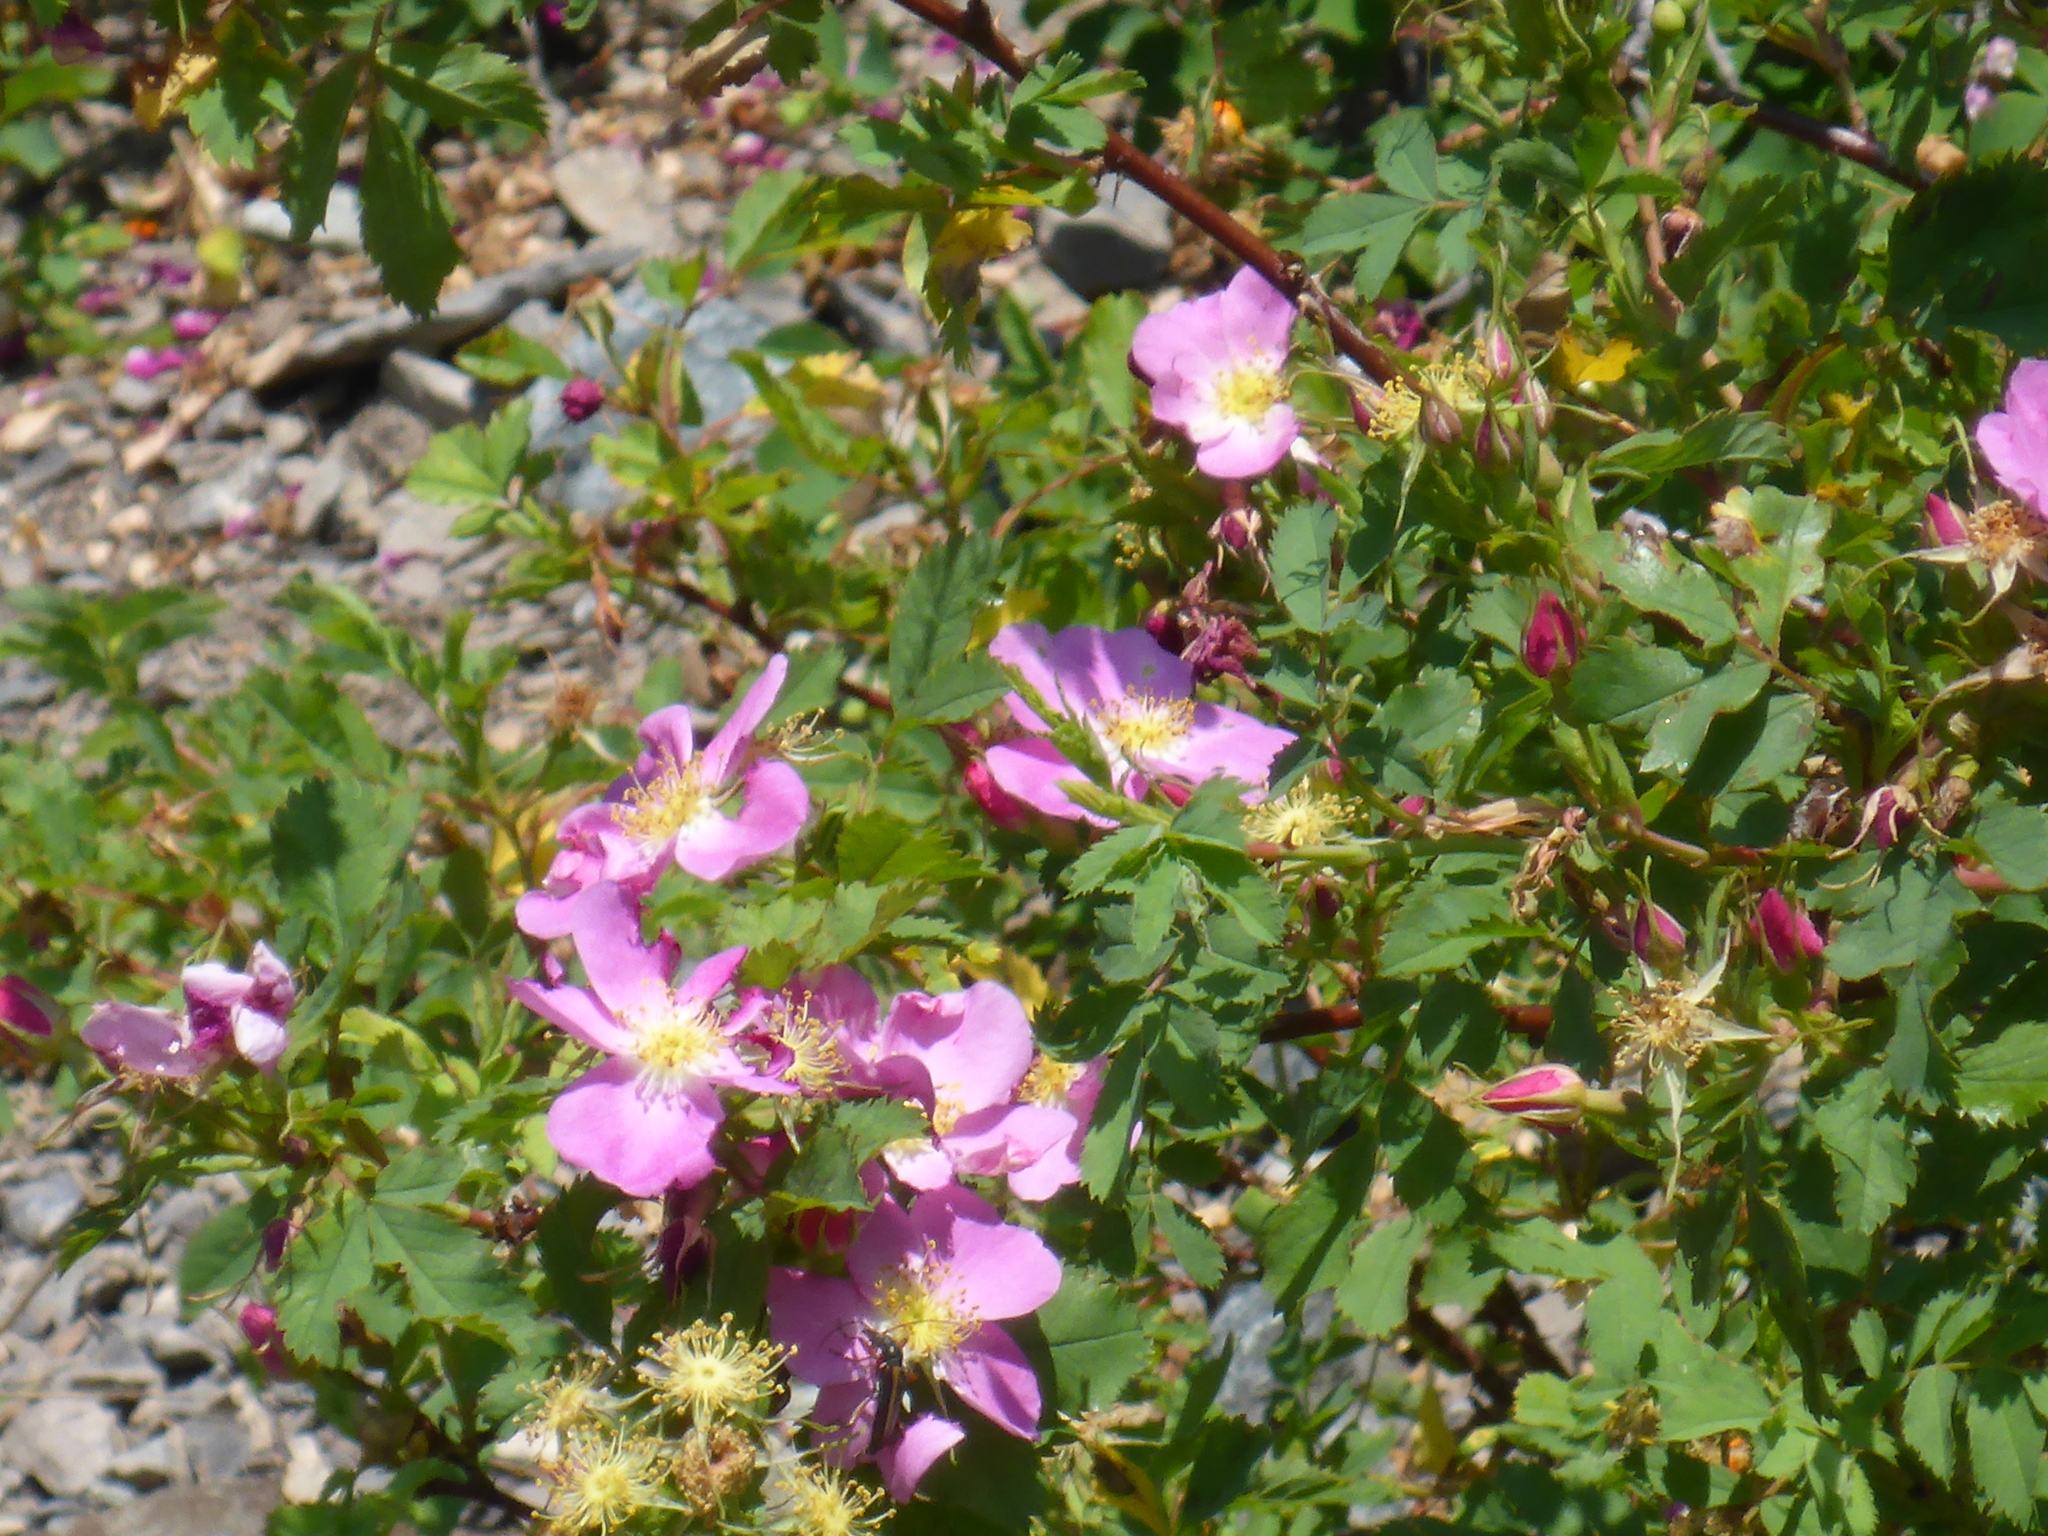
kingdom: Plantae
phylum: Tracheophyta
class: Magnoliopsida
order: Rosales
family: Rosaceae
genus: Rosa
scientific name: Rosa woodsii
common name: Woods's rose
